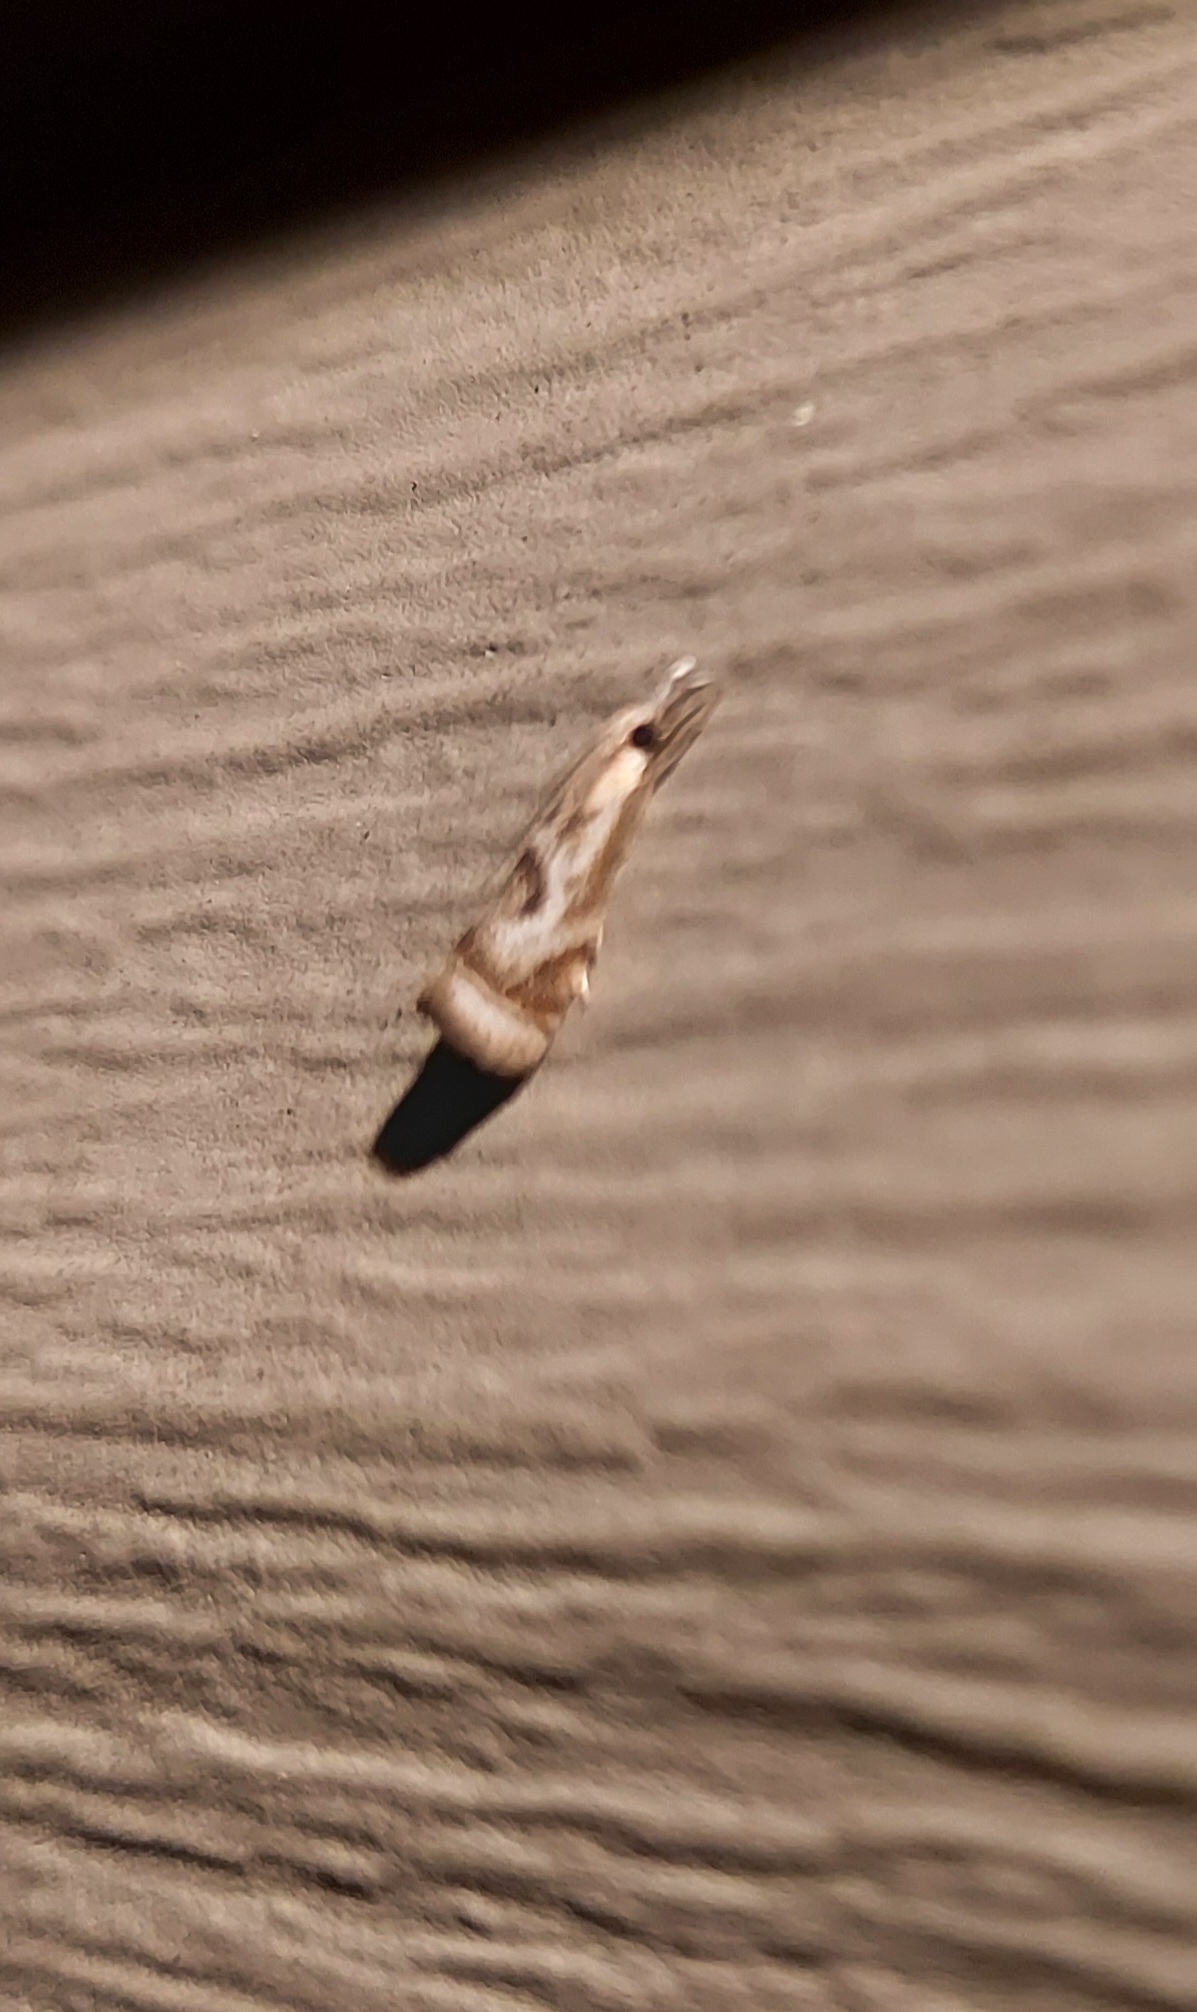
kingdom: Animalia
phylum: Arthropoda
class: Insecta
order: Lepidoptera
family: Crambidae
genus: Microcrambus
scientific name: Microcrambus elegans
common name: Elegant grass-veneer
